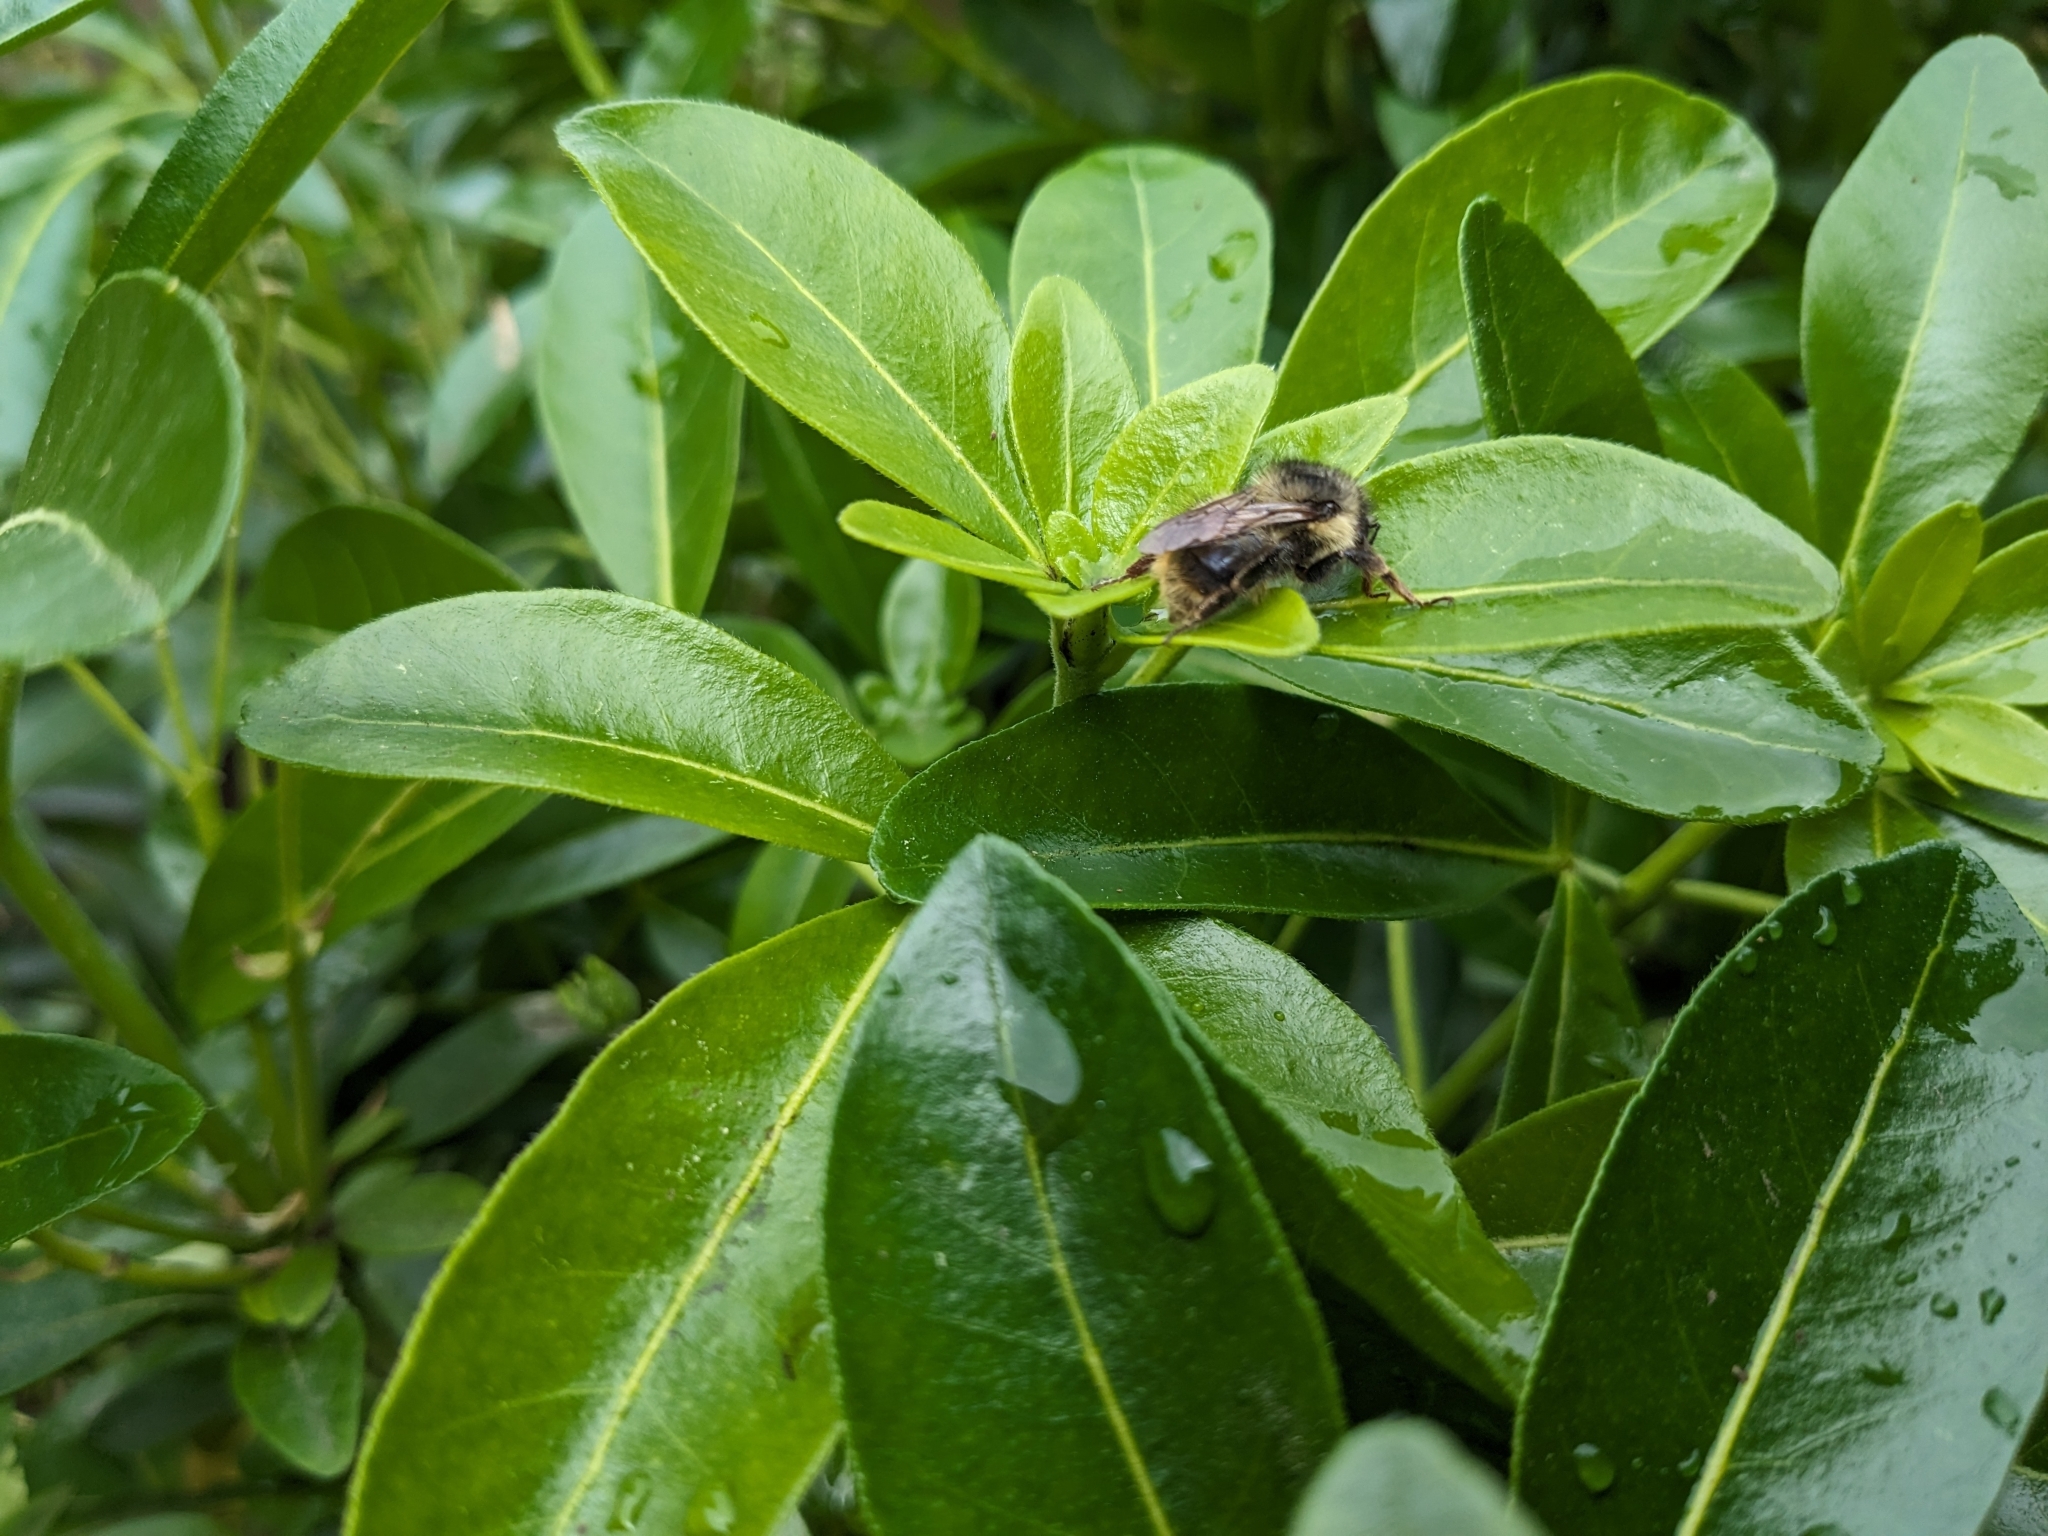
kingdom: Animalia
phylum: Arthropoda
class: Insecta
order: Hymenoptera
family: Apidae
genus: Bombus
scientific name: Bombus mixtus
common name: Fuzzy-horned bumble bee
